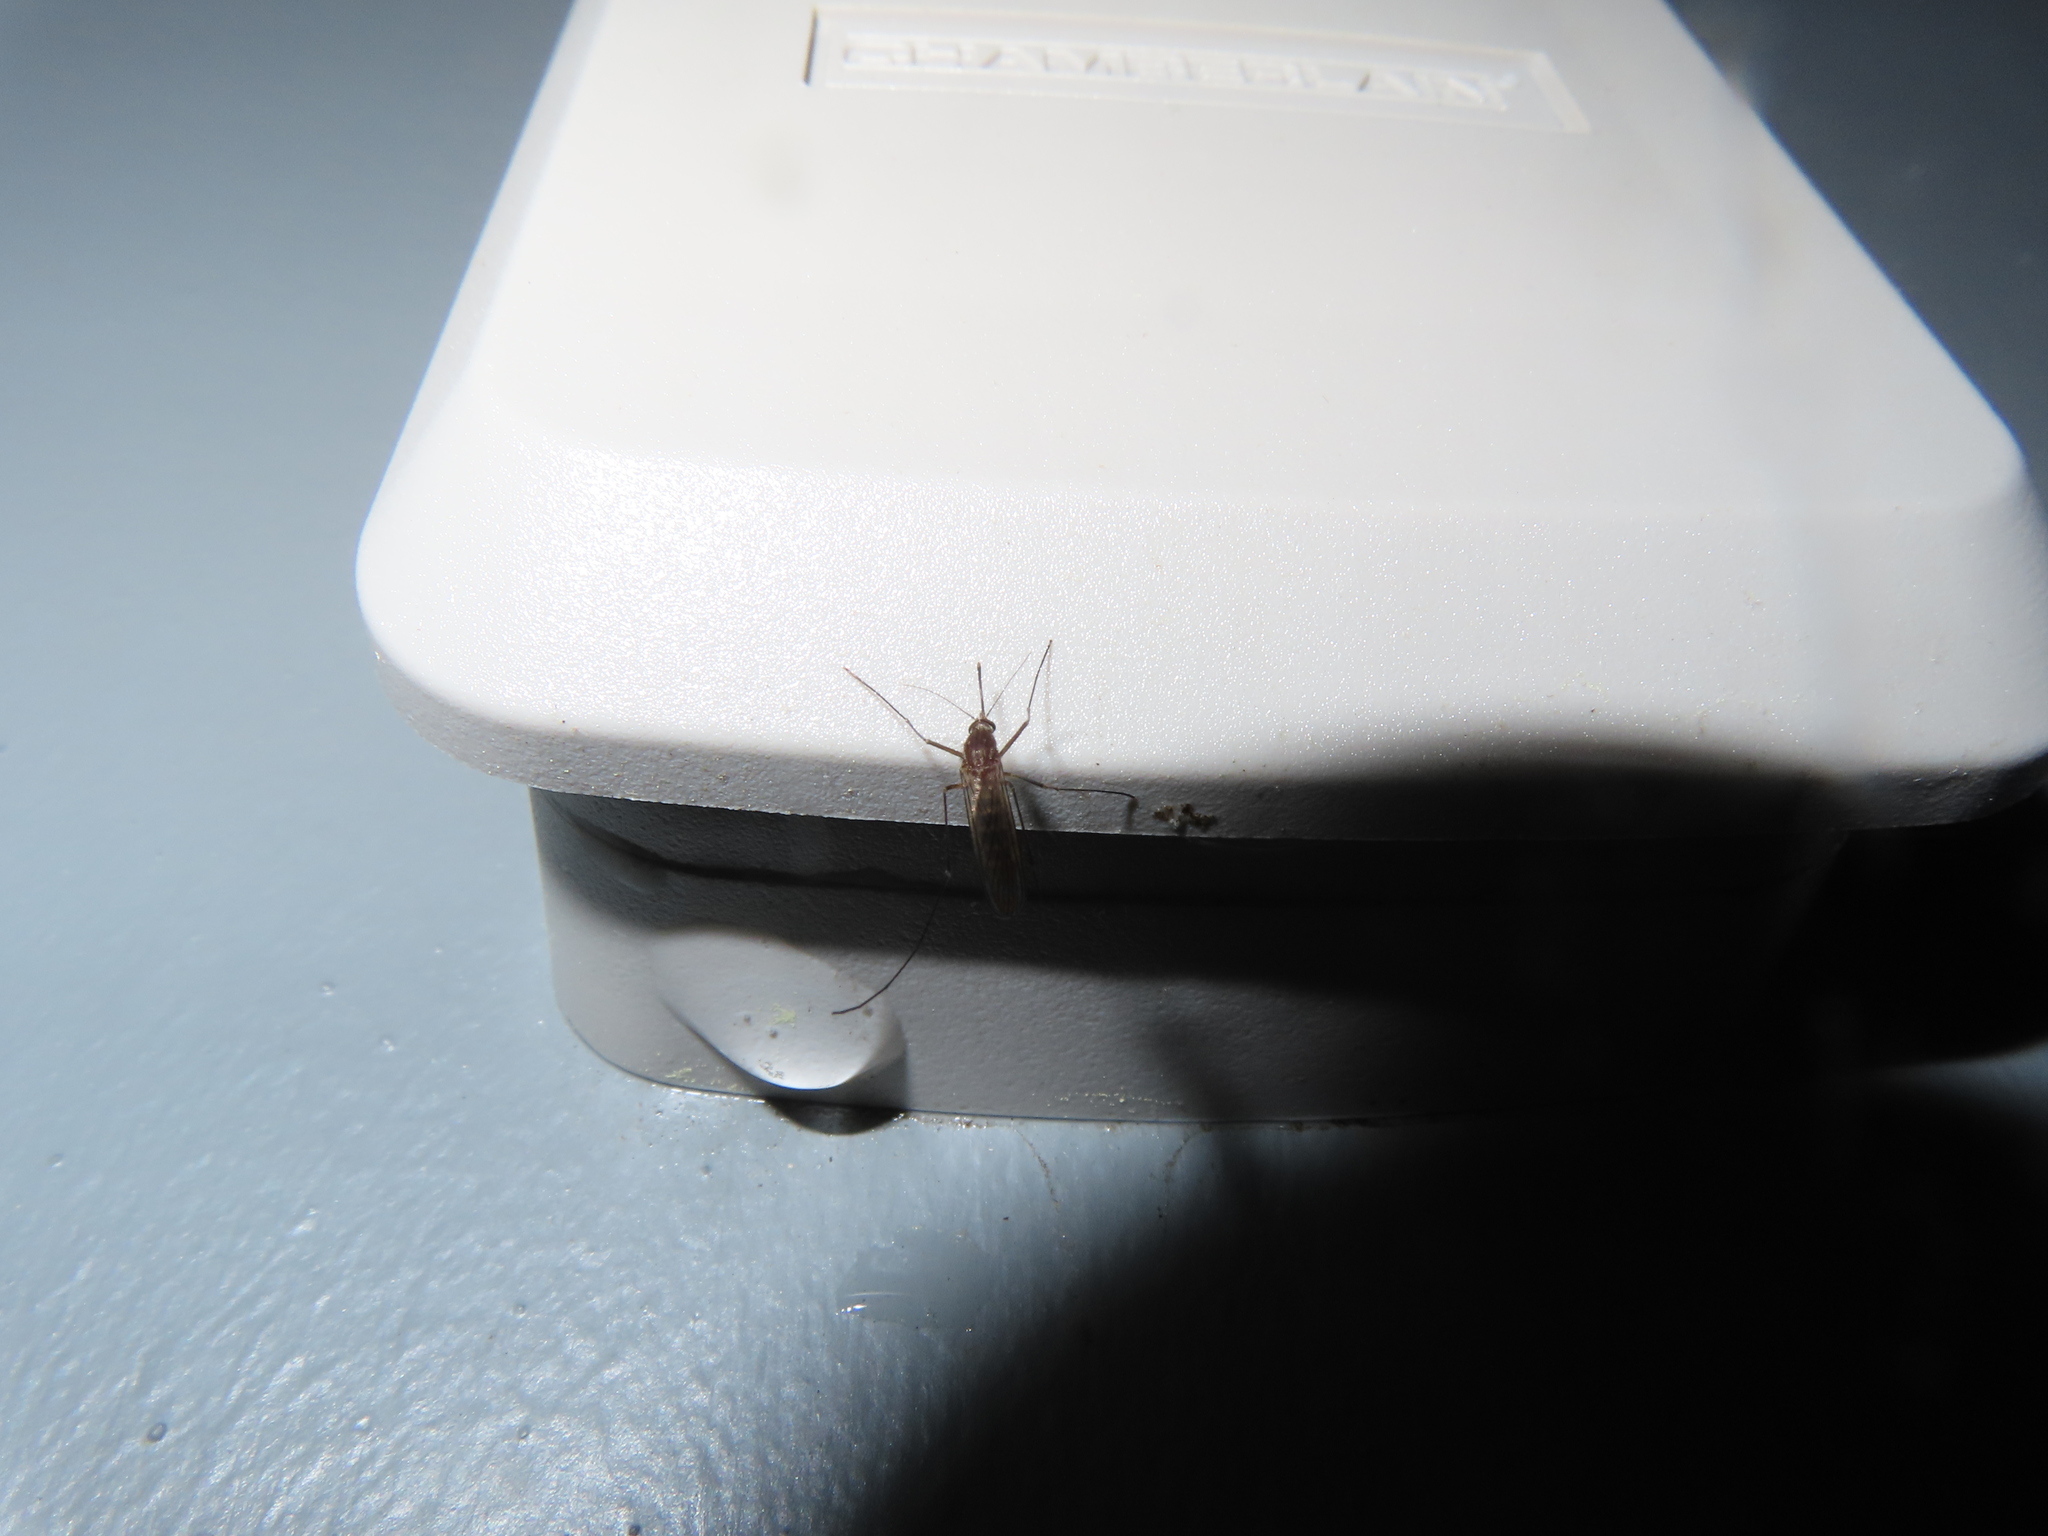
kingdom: Animalia
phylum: Arthropoda
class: Insecta
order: Diptera
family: Culicidae
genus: Culex
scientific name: Culex restuans
